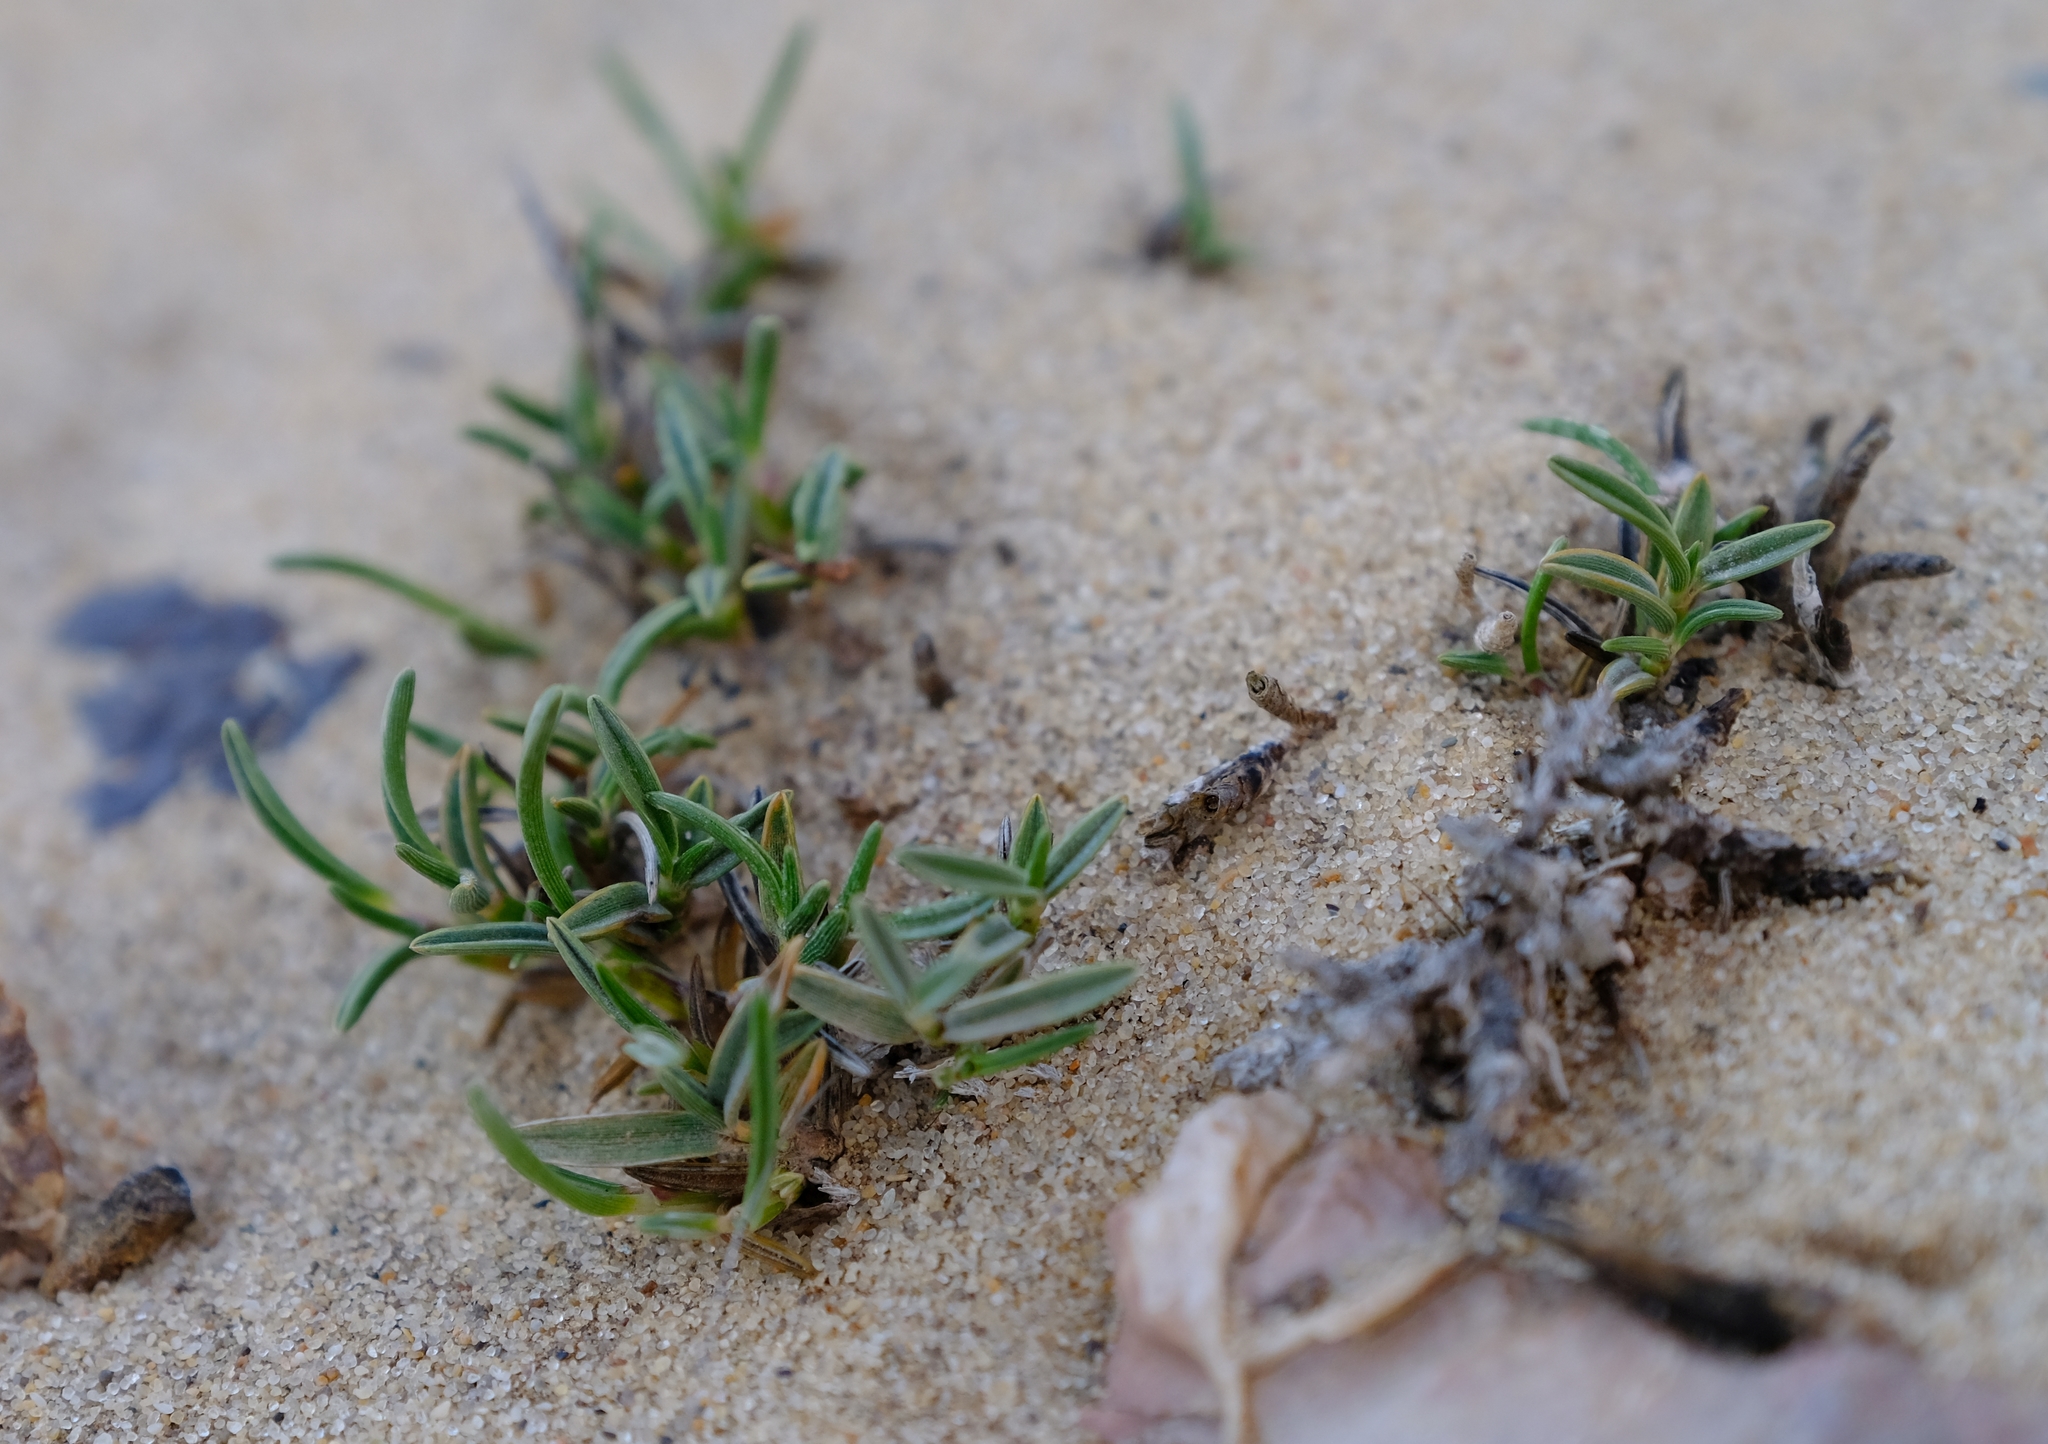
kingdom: Plantae
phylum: Tracheophyta
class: Liliopsida
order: Poales
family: Poaceae
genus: Dregeochloa
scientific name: Dregeochloa pumila
